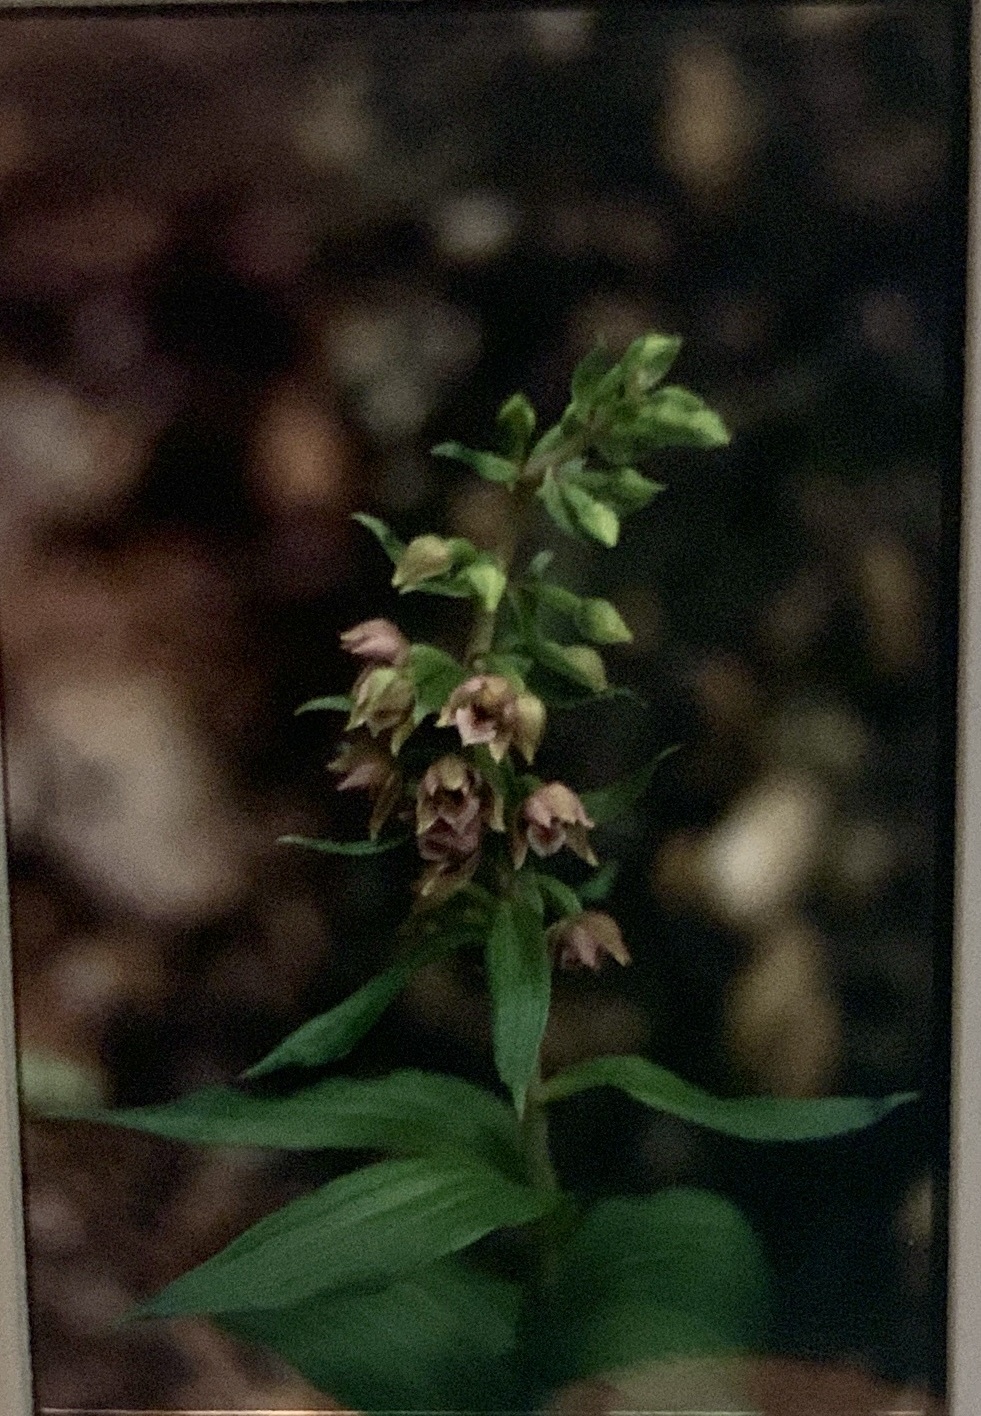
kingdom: Plantae
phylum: Tracheophyta
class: Liliopsida
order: Asparagales
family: Orchidaceae
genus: Epipactis
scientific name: Epipactis helleborine
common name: Broad-leaved helleborine
